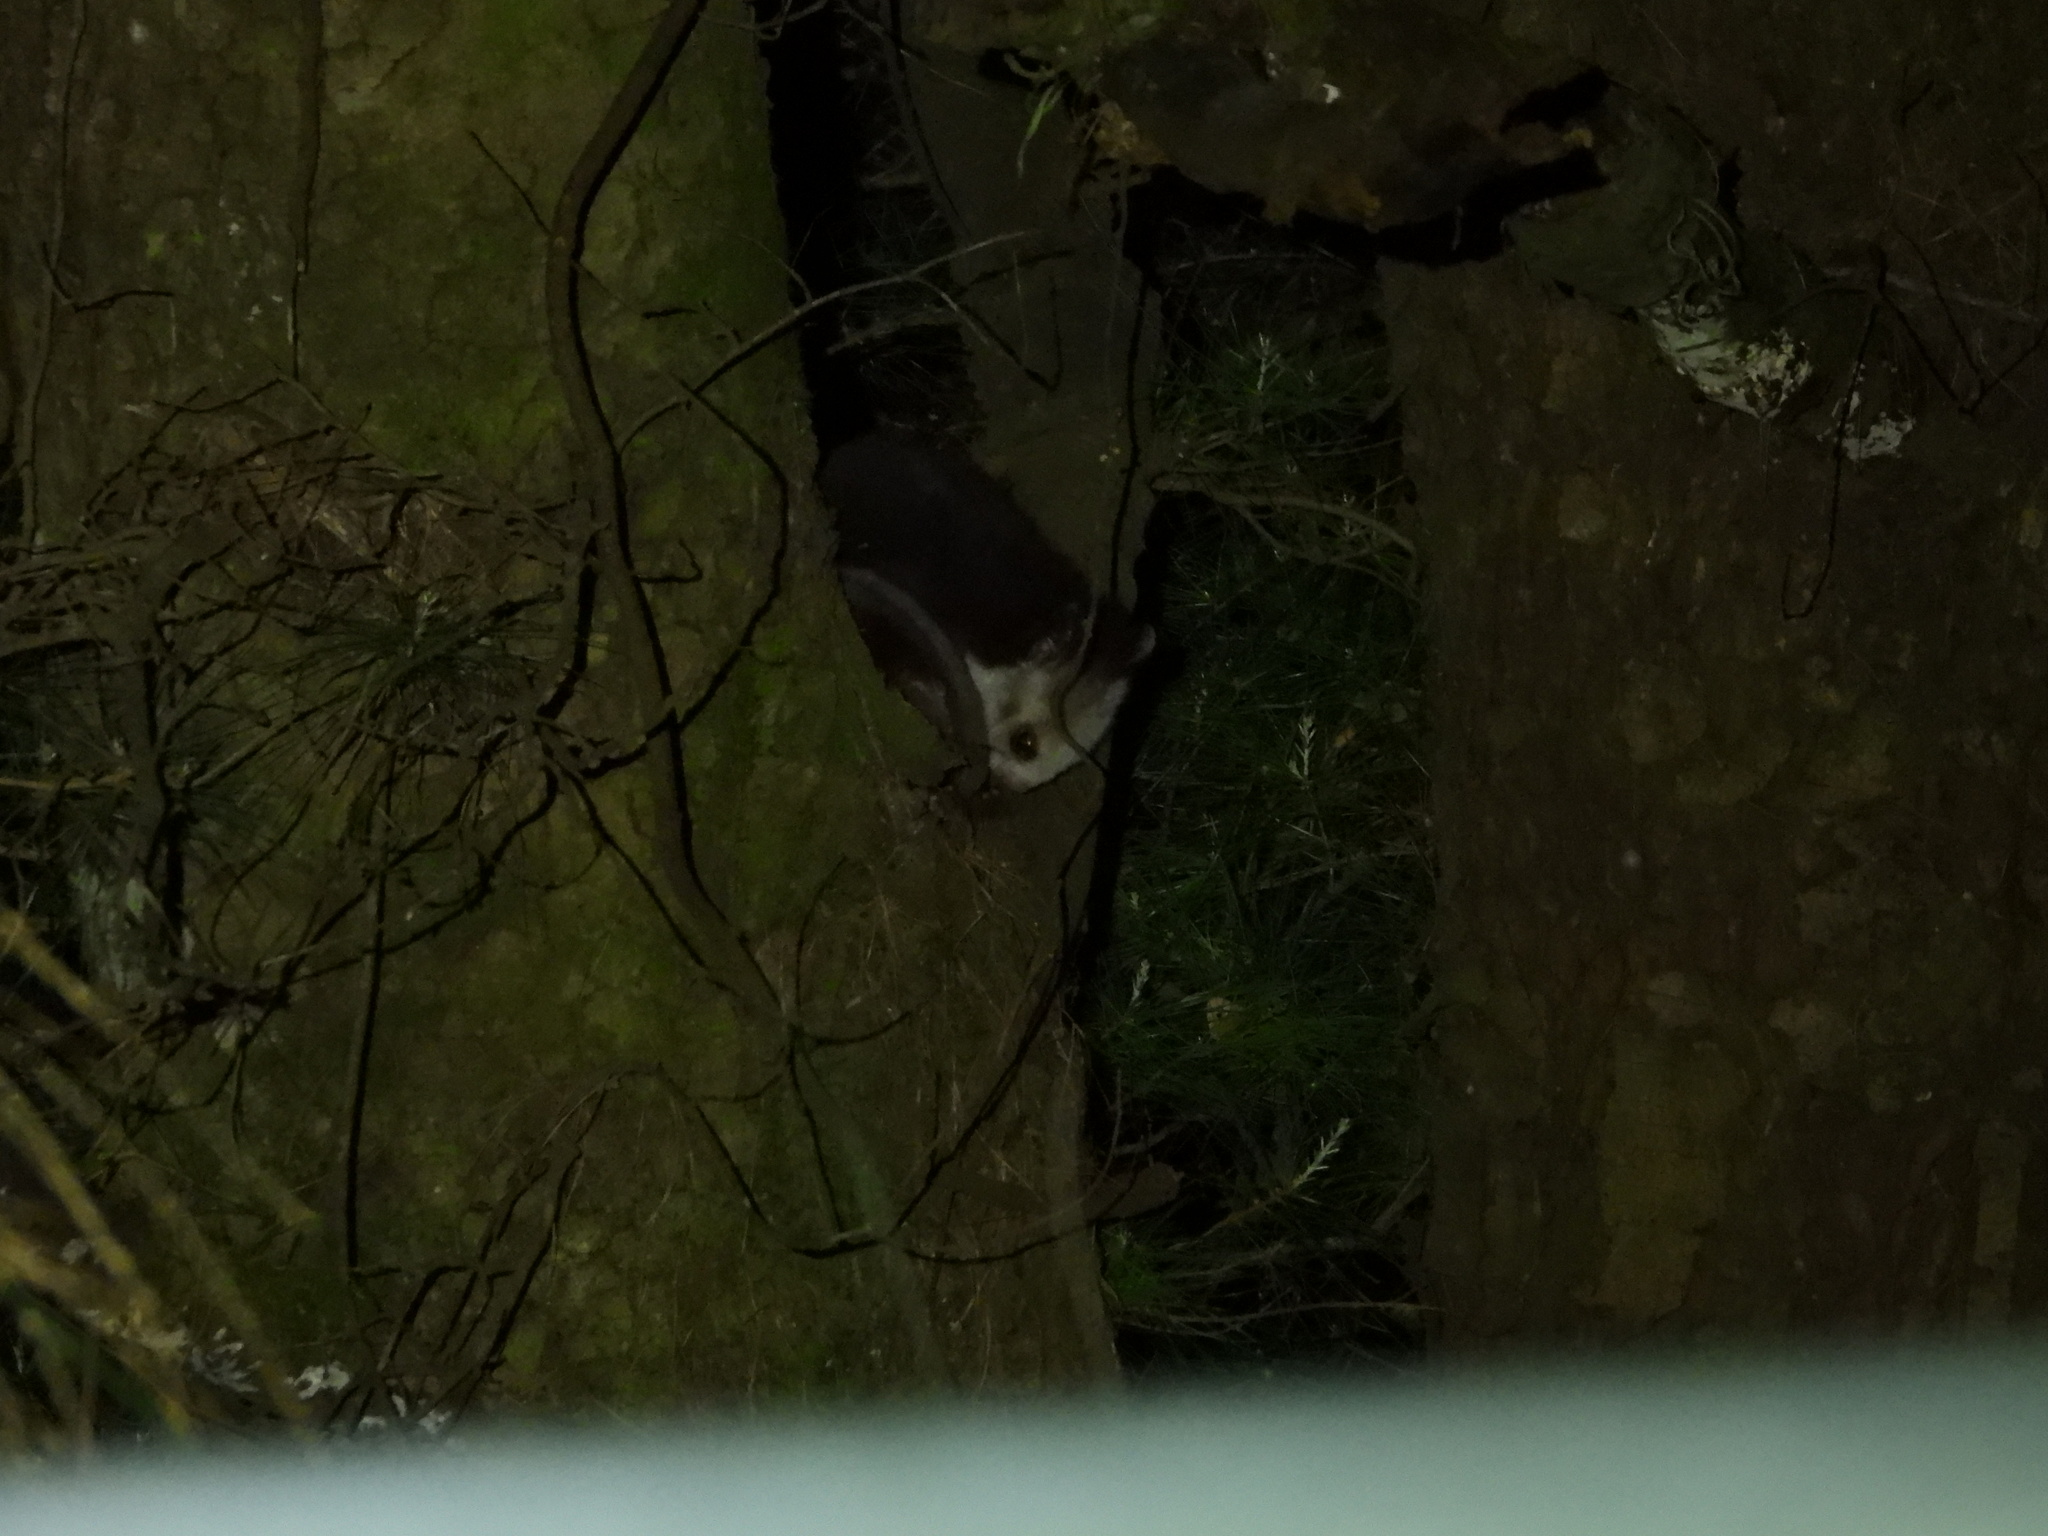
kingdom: Animalia
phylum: Chordata
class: Mammalia
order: Rodentia
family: Sciuridae
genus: Petaurista
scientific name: Petaurista lena
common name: Taiwan giant flying squirrel
